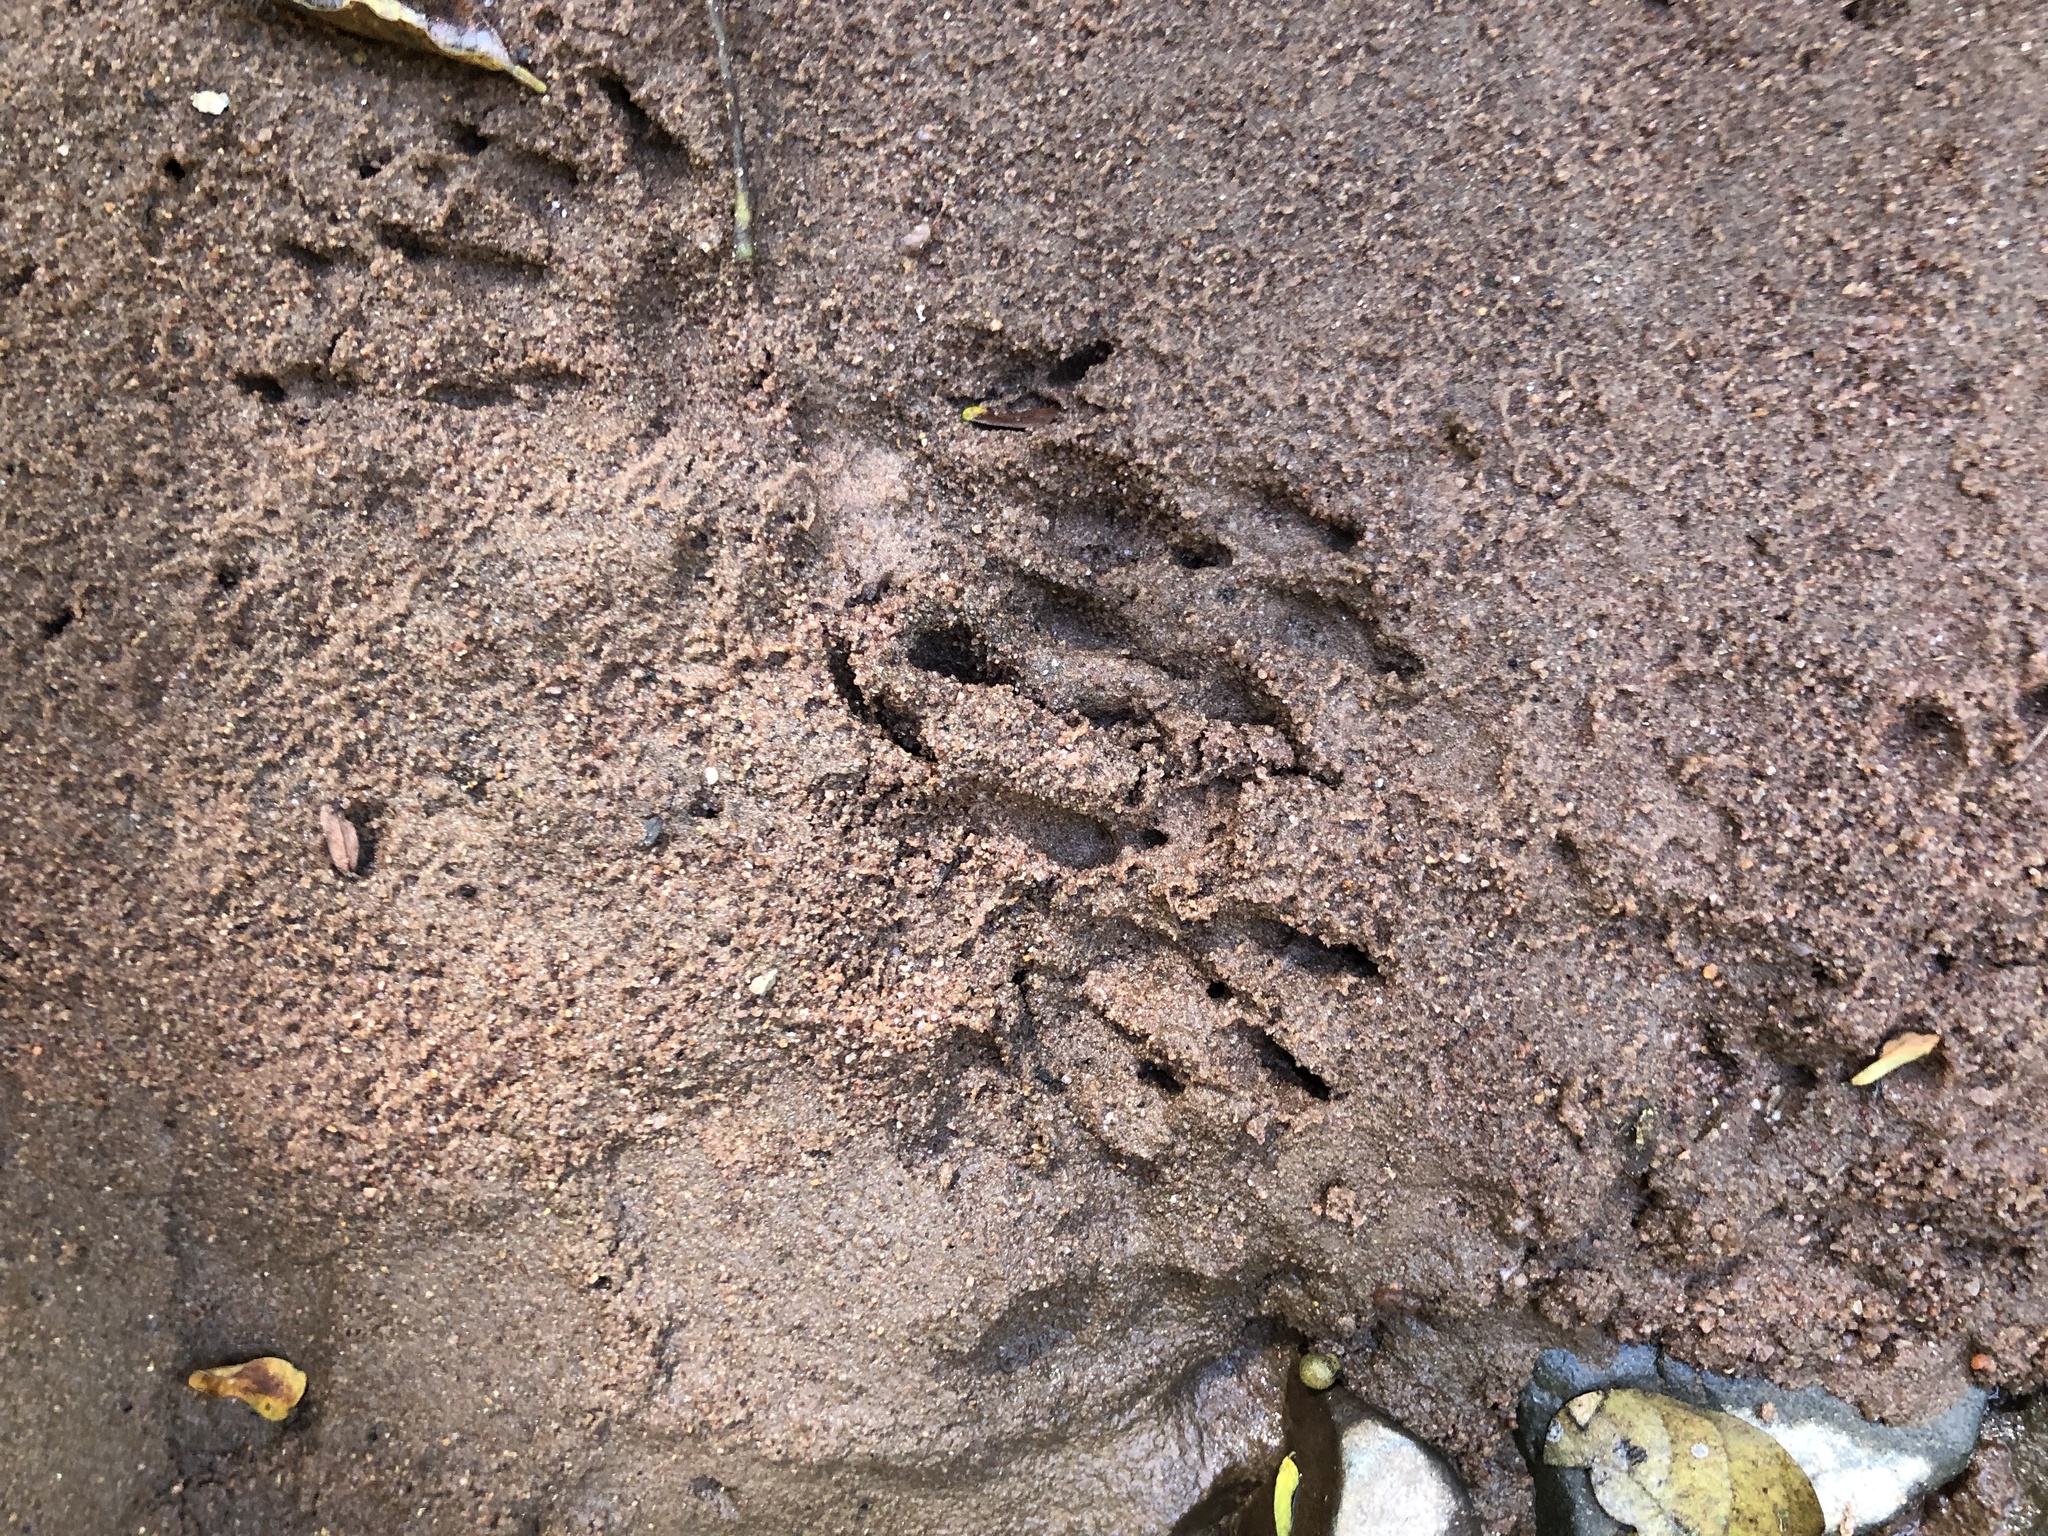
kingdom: Animalia
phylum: Chordata
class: Mammalia
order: Carnivora
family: Herpestidae
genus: Atilax
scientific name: Atilax paludinosus
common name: Marsh mongoose
